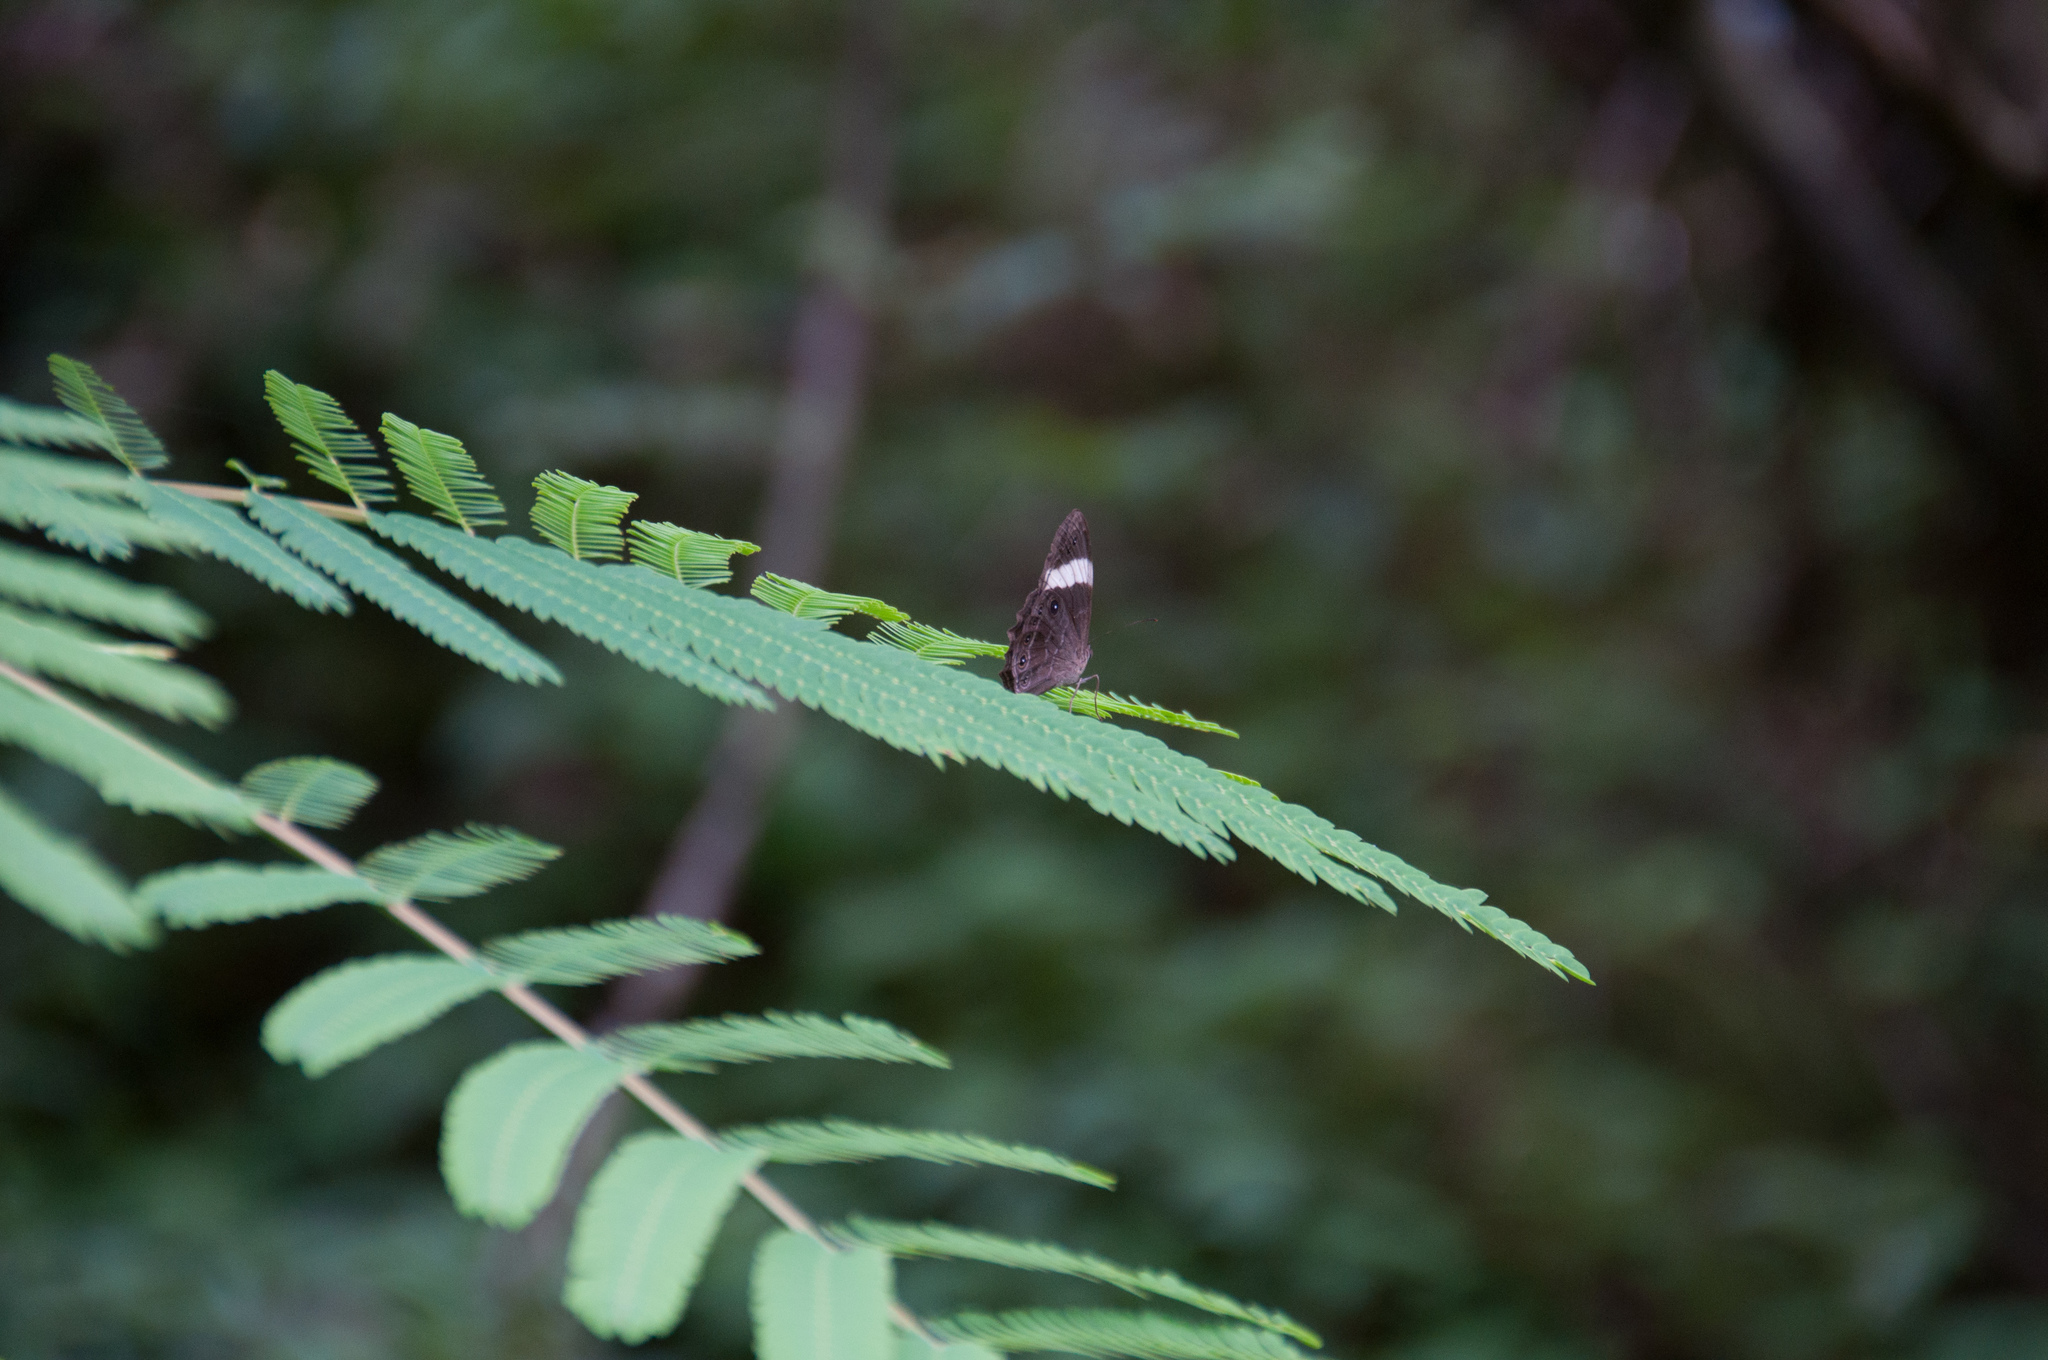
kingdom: Animalia
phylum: Arthropoda
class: Insecta
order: Lepidoptera
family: Nymphalidae
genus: Lethe
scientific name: Lethe verma
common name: Straight-banded treebrown
